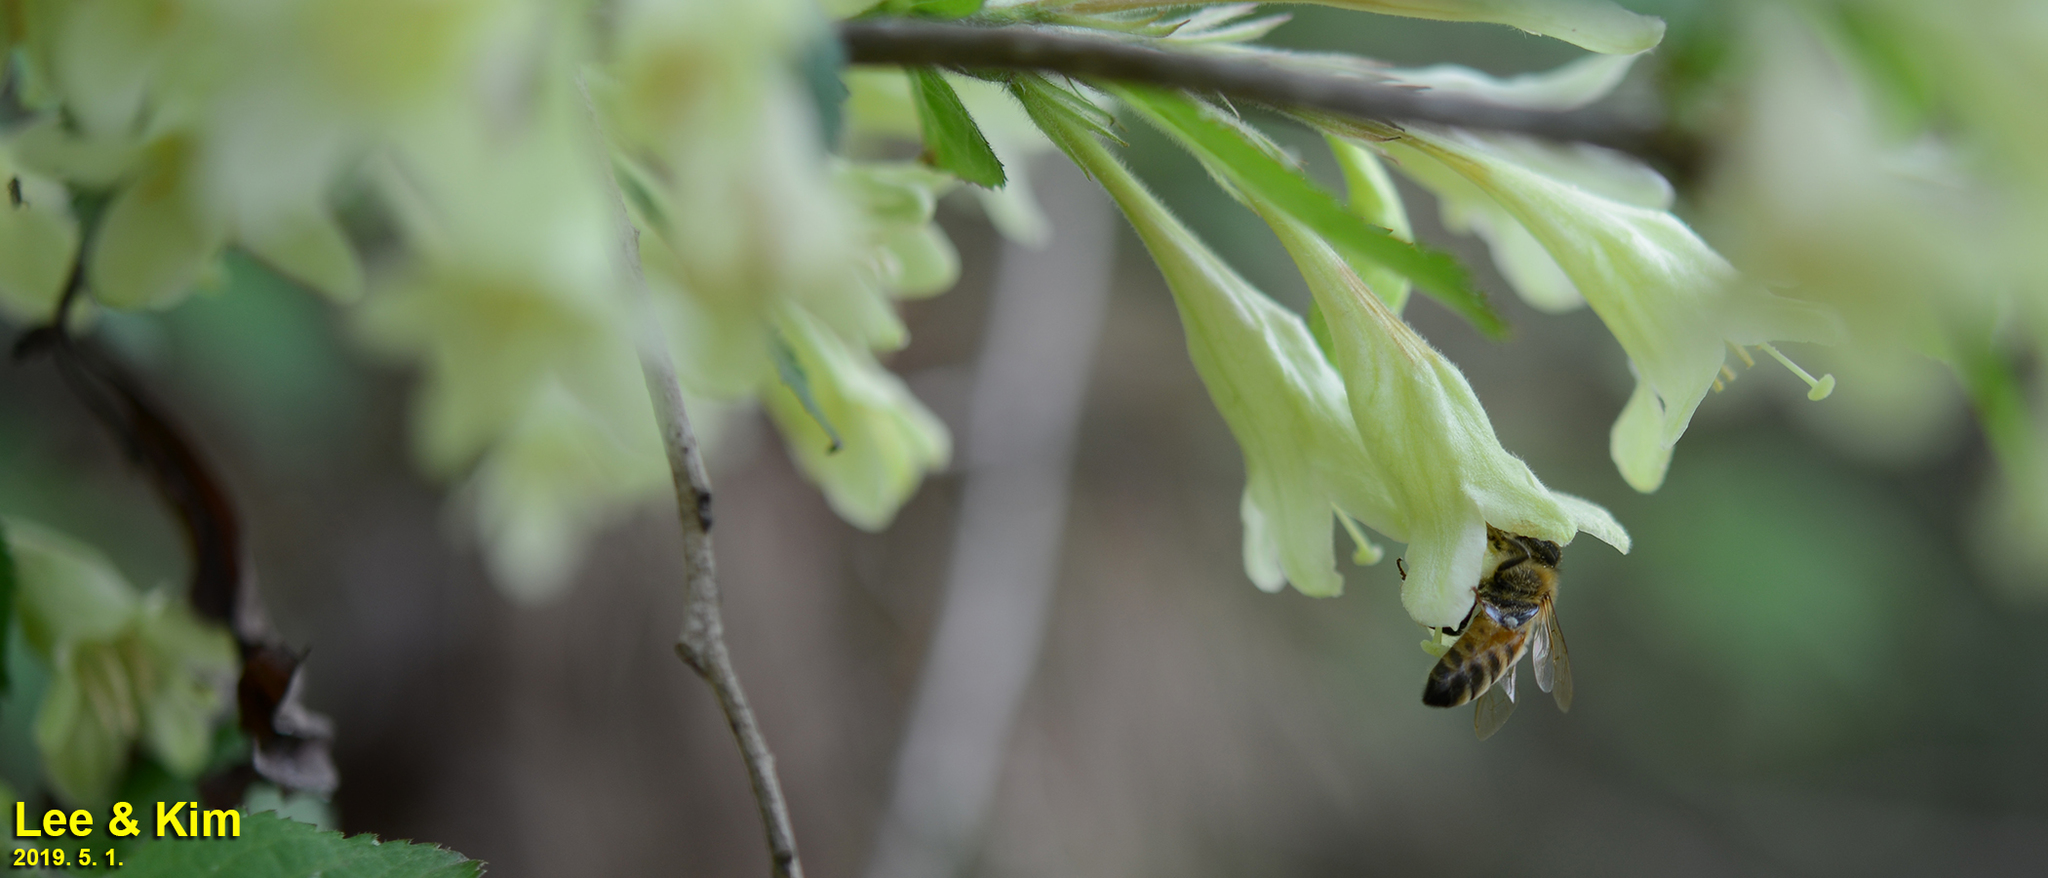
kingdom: Animalia
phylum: Arthropoda
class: Insecta
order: Hymenoptera
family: Apidae
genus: Apis
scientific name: Apis mellifera
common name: Honey bee
